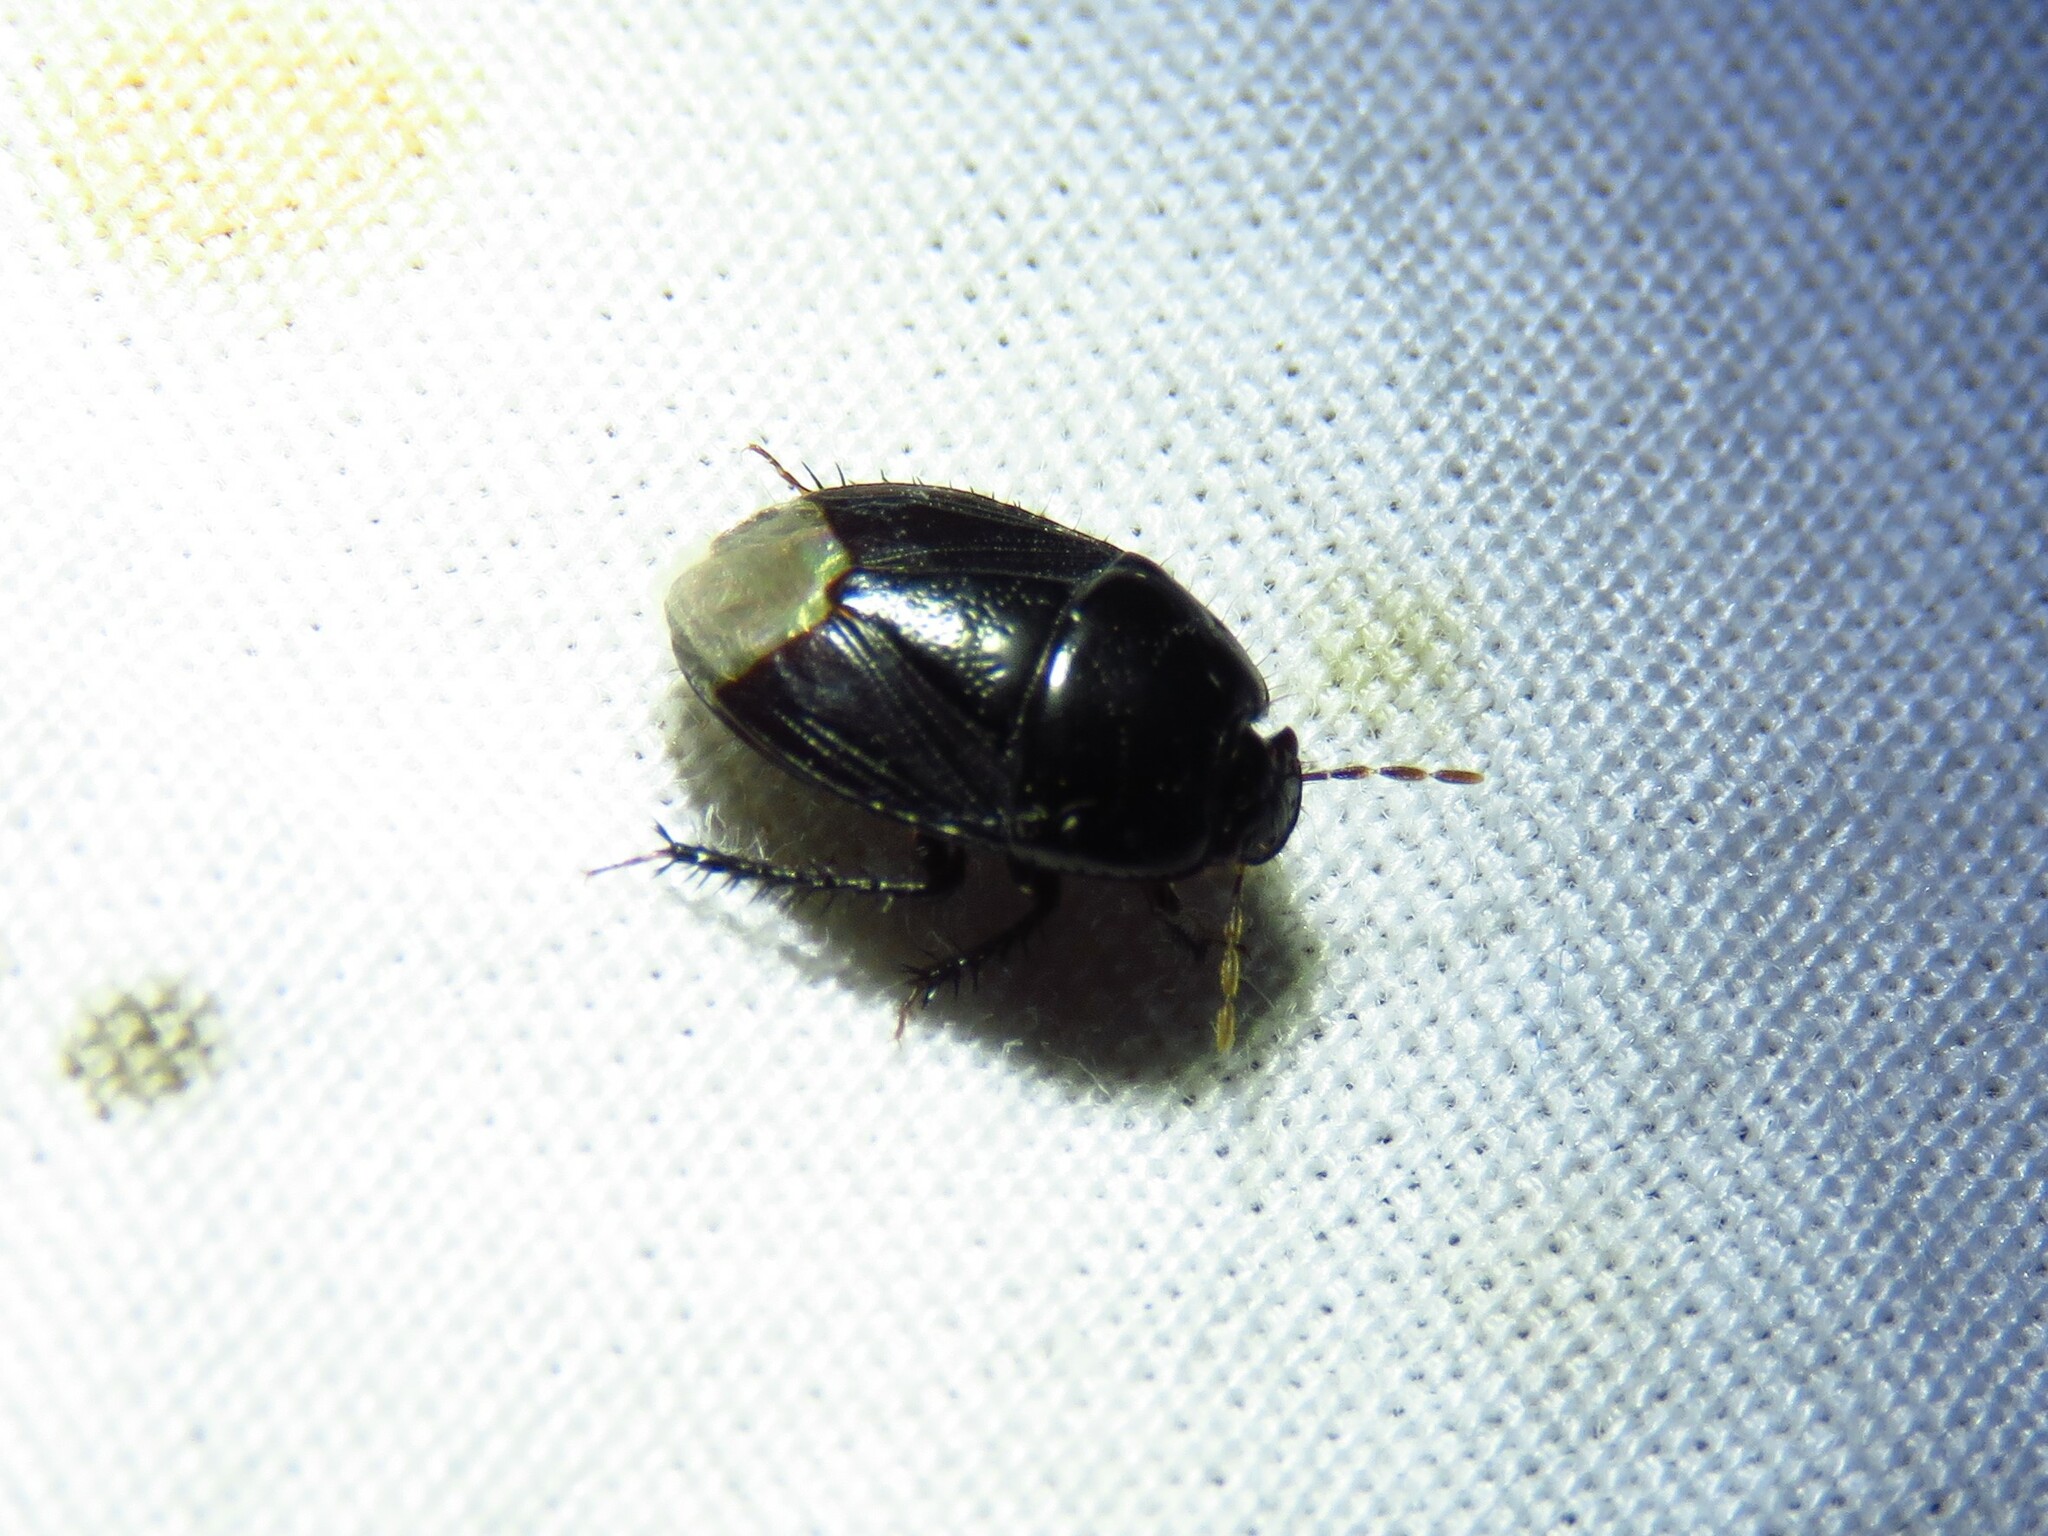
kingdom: Animalia
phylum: Arthropoda
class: Insecta
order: Hemiptera
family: Cydnidae
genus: Pangaeus
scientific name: Pangaeus bilineatus
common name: Burrower bug
